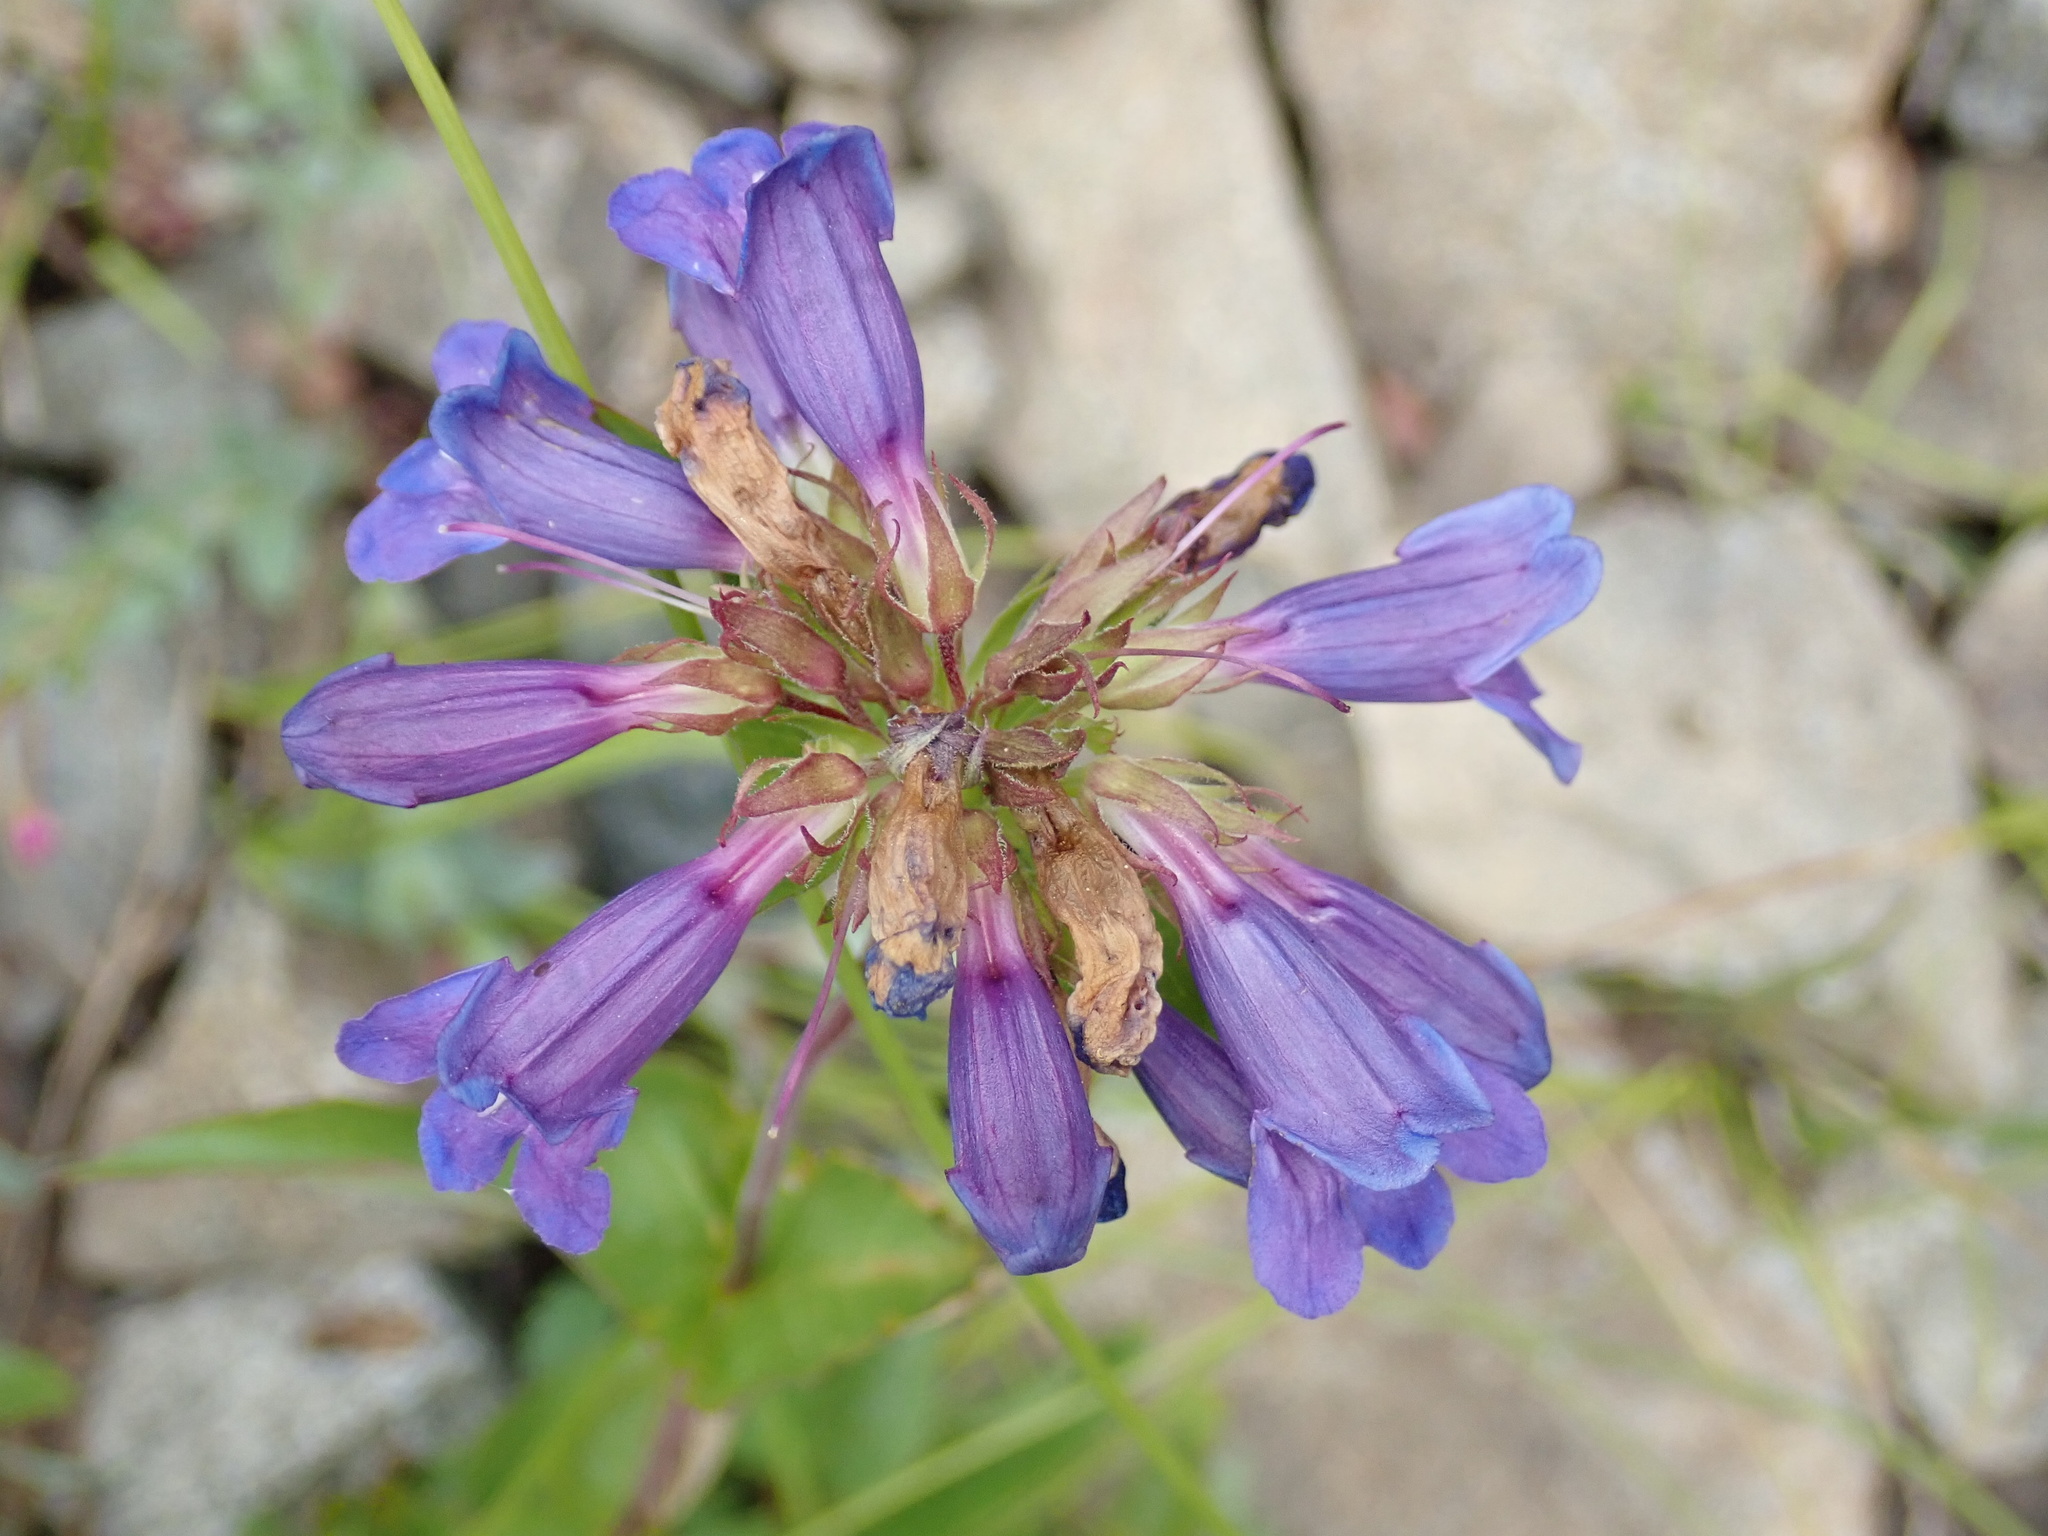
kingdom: Plantae
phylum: Tracheophyta
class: Magnoliopsida
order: Lamiales
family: Plantaginaceae
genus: Penstemon
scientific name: Penstemon procerus
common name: Small-flower penstemon
